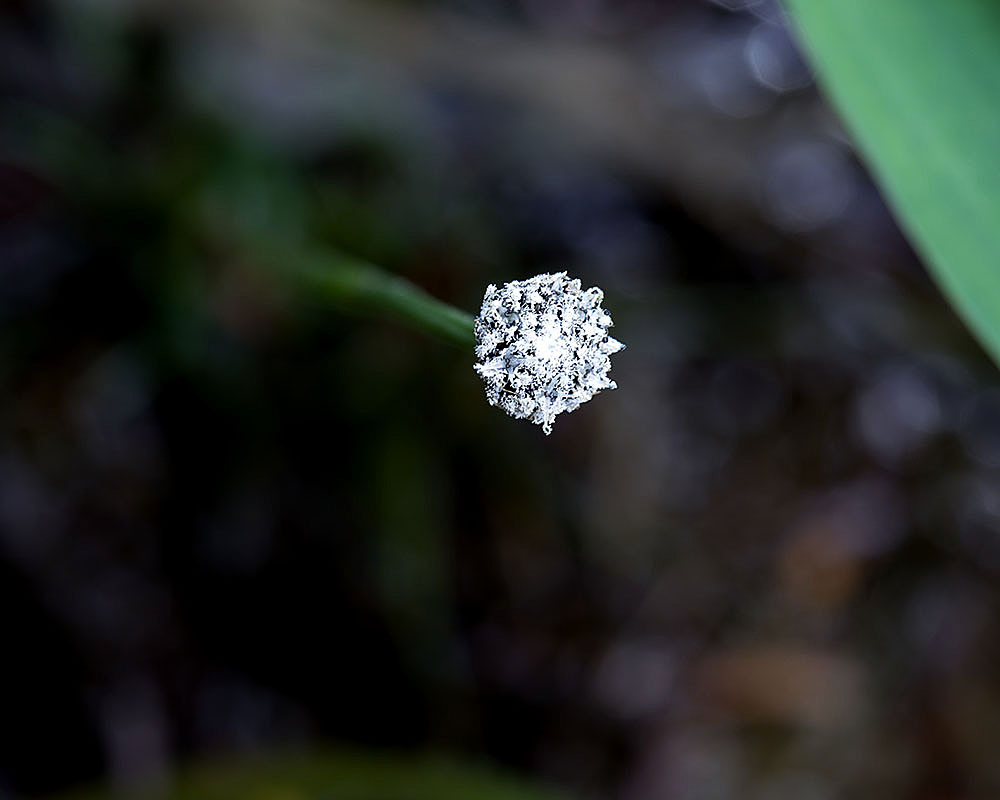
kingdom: Plantae
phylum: Tracheophyta
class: Liliopsida
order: Poales
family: Eriocaulaceae
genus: Eriocaulon
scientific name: Eriocaulon aquaticum
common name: Pipewort
